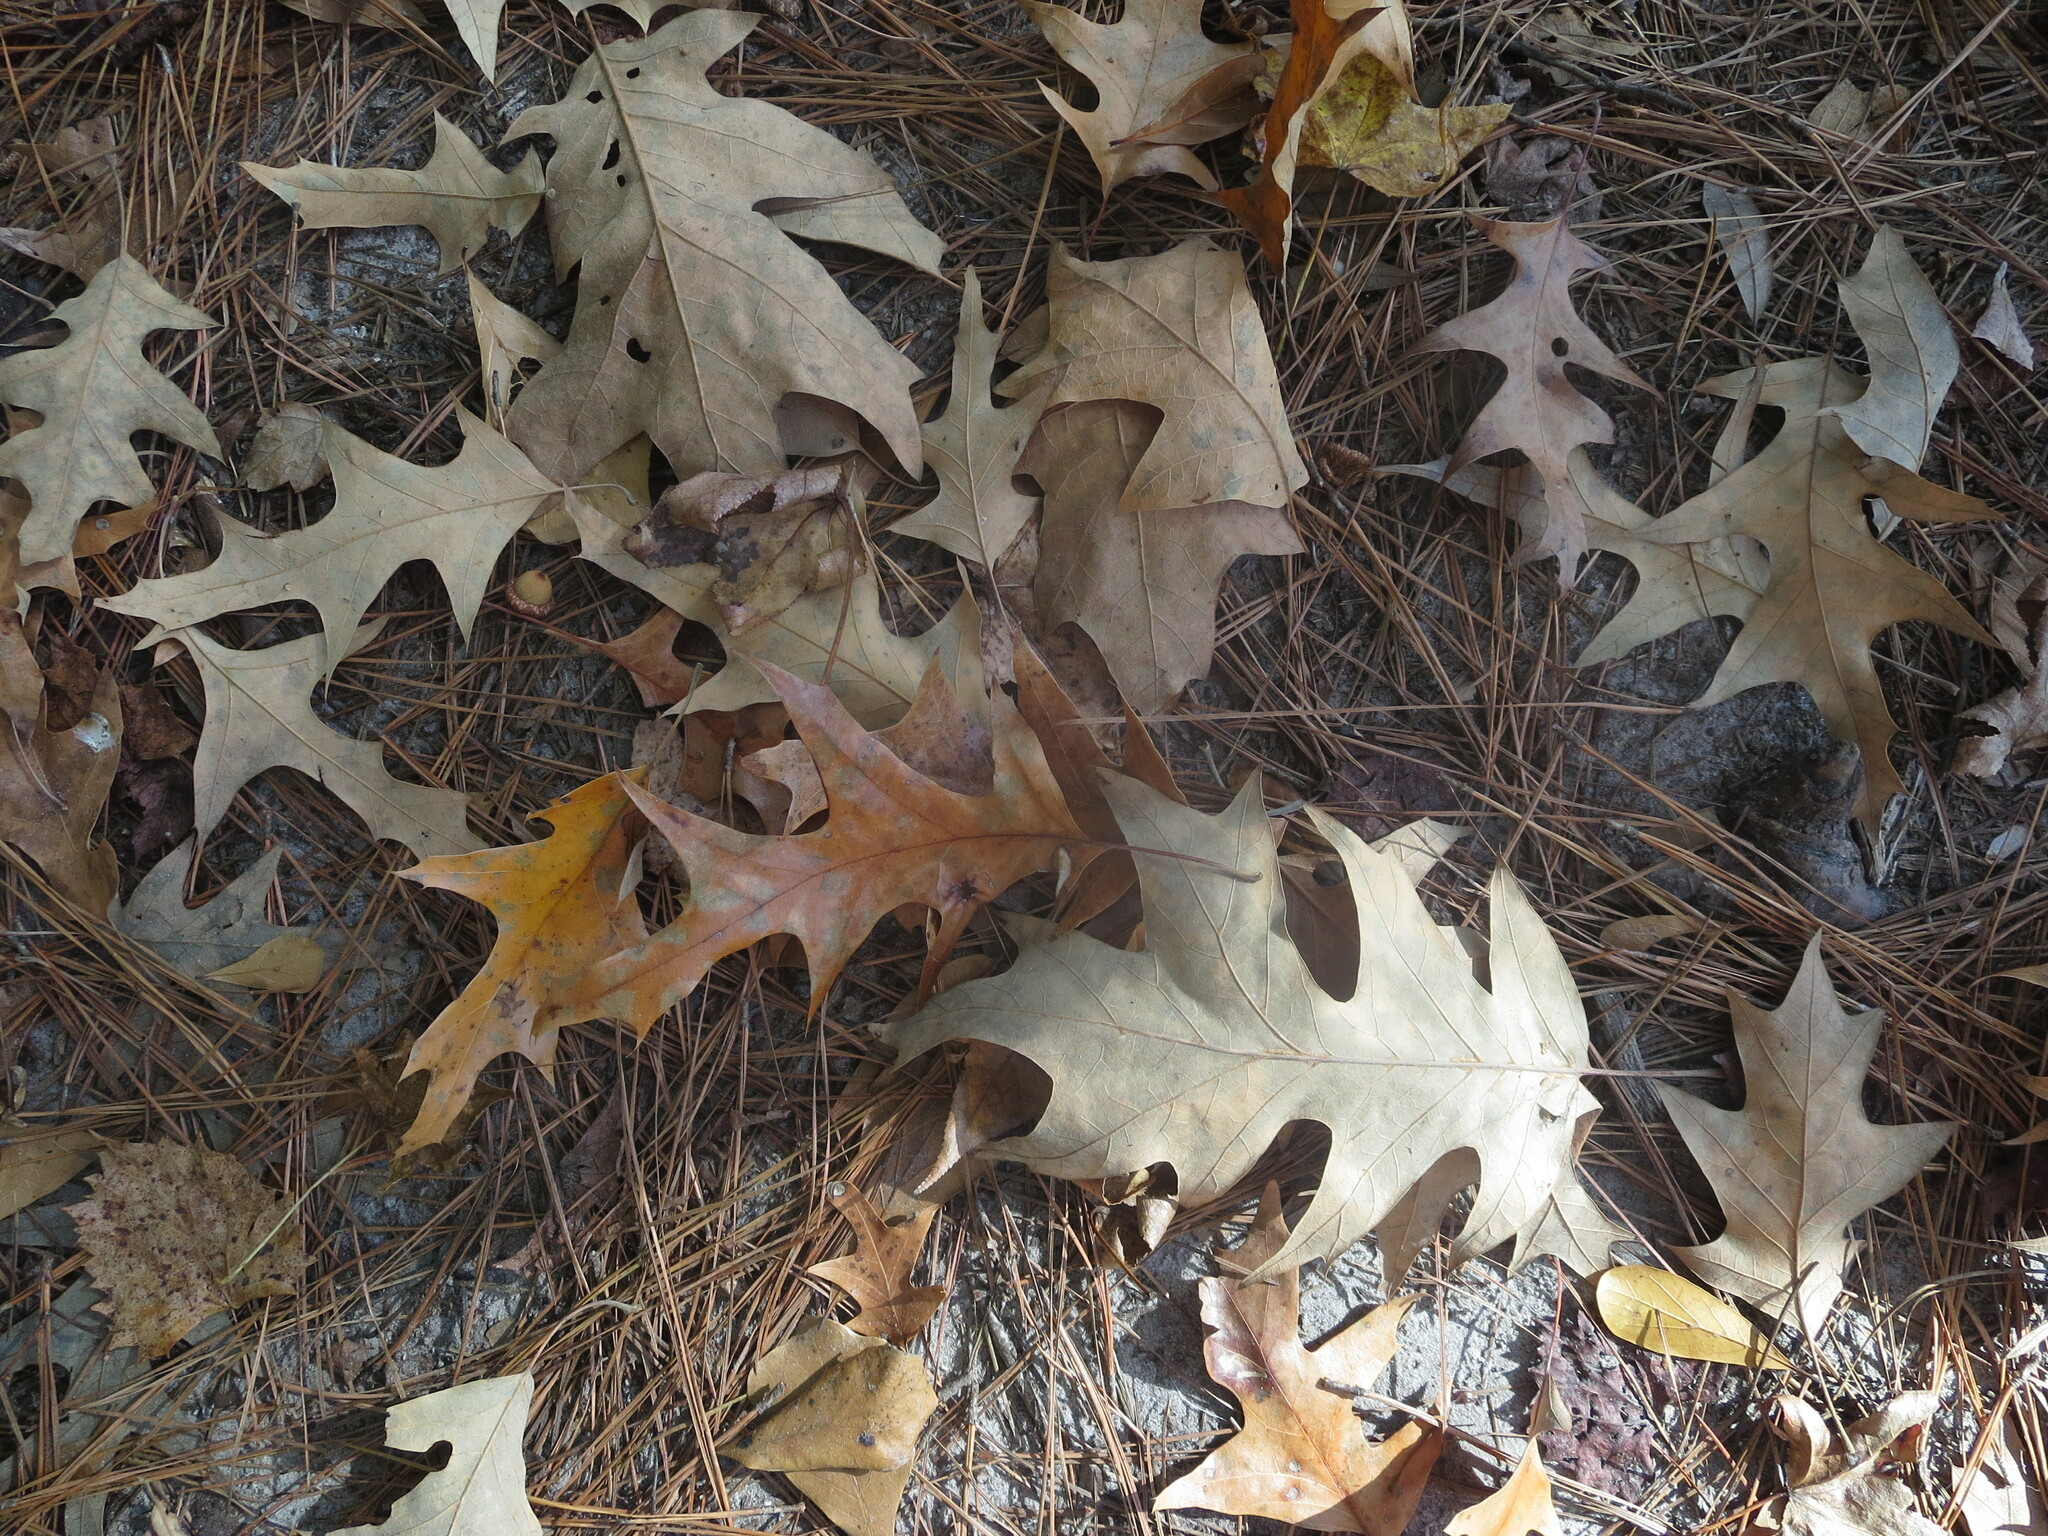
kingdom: Plantae
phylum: Tracheophyta
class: Magnoliopsida
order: Fagales
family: Fagaceae
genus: Quercus
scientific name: Quercus pagoda
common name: Cherrybark oak
